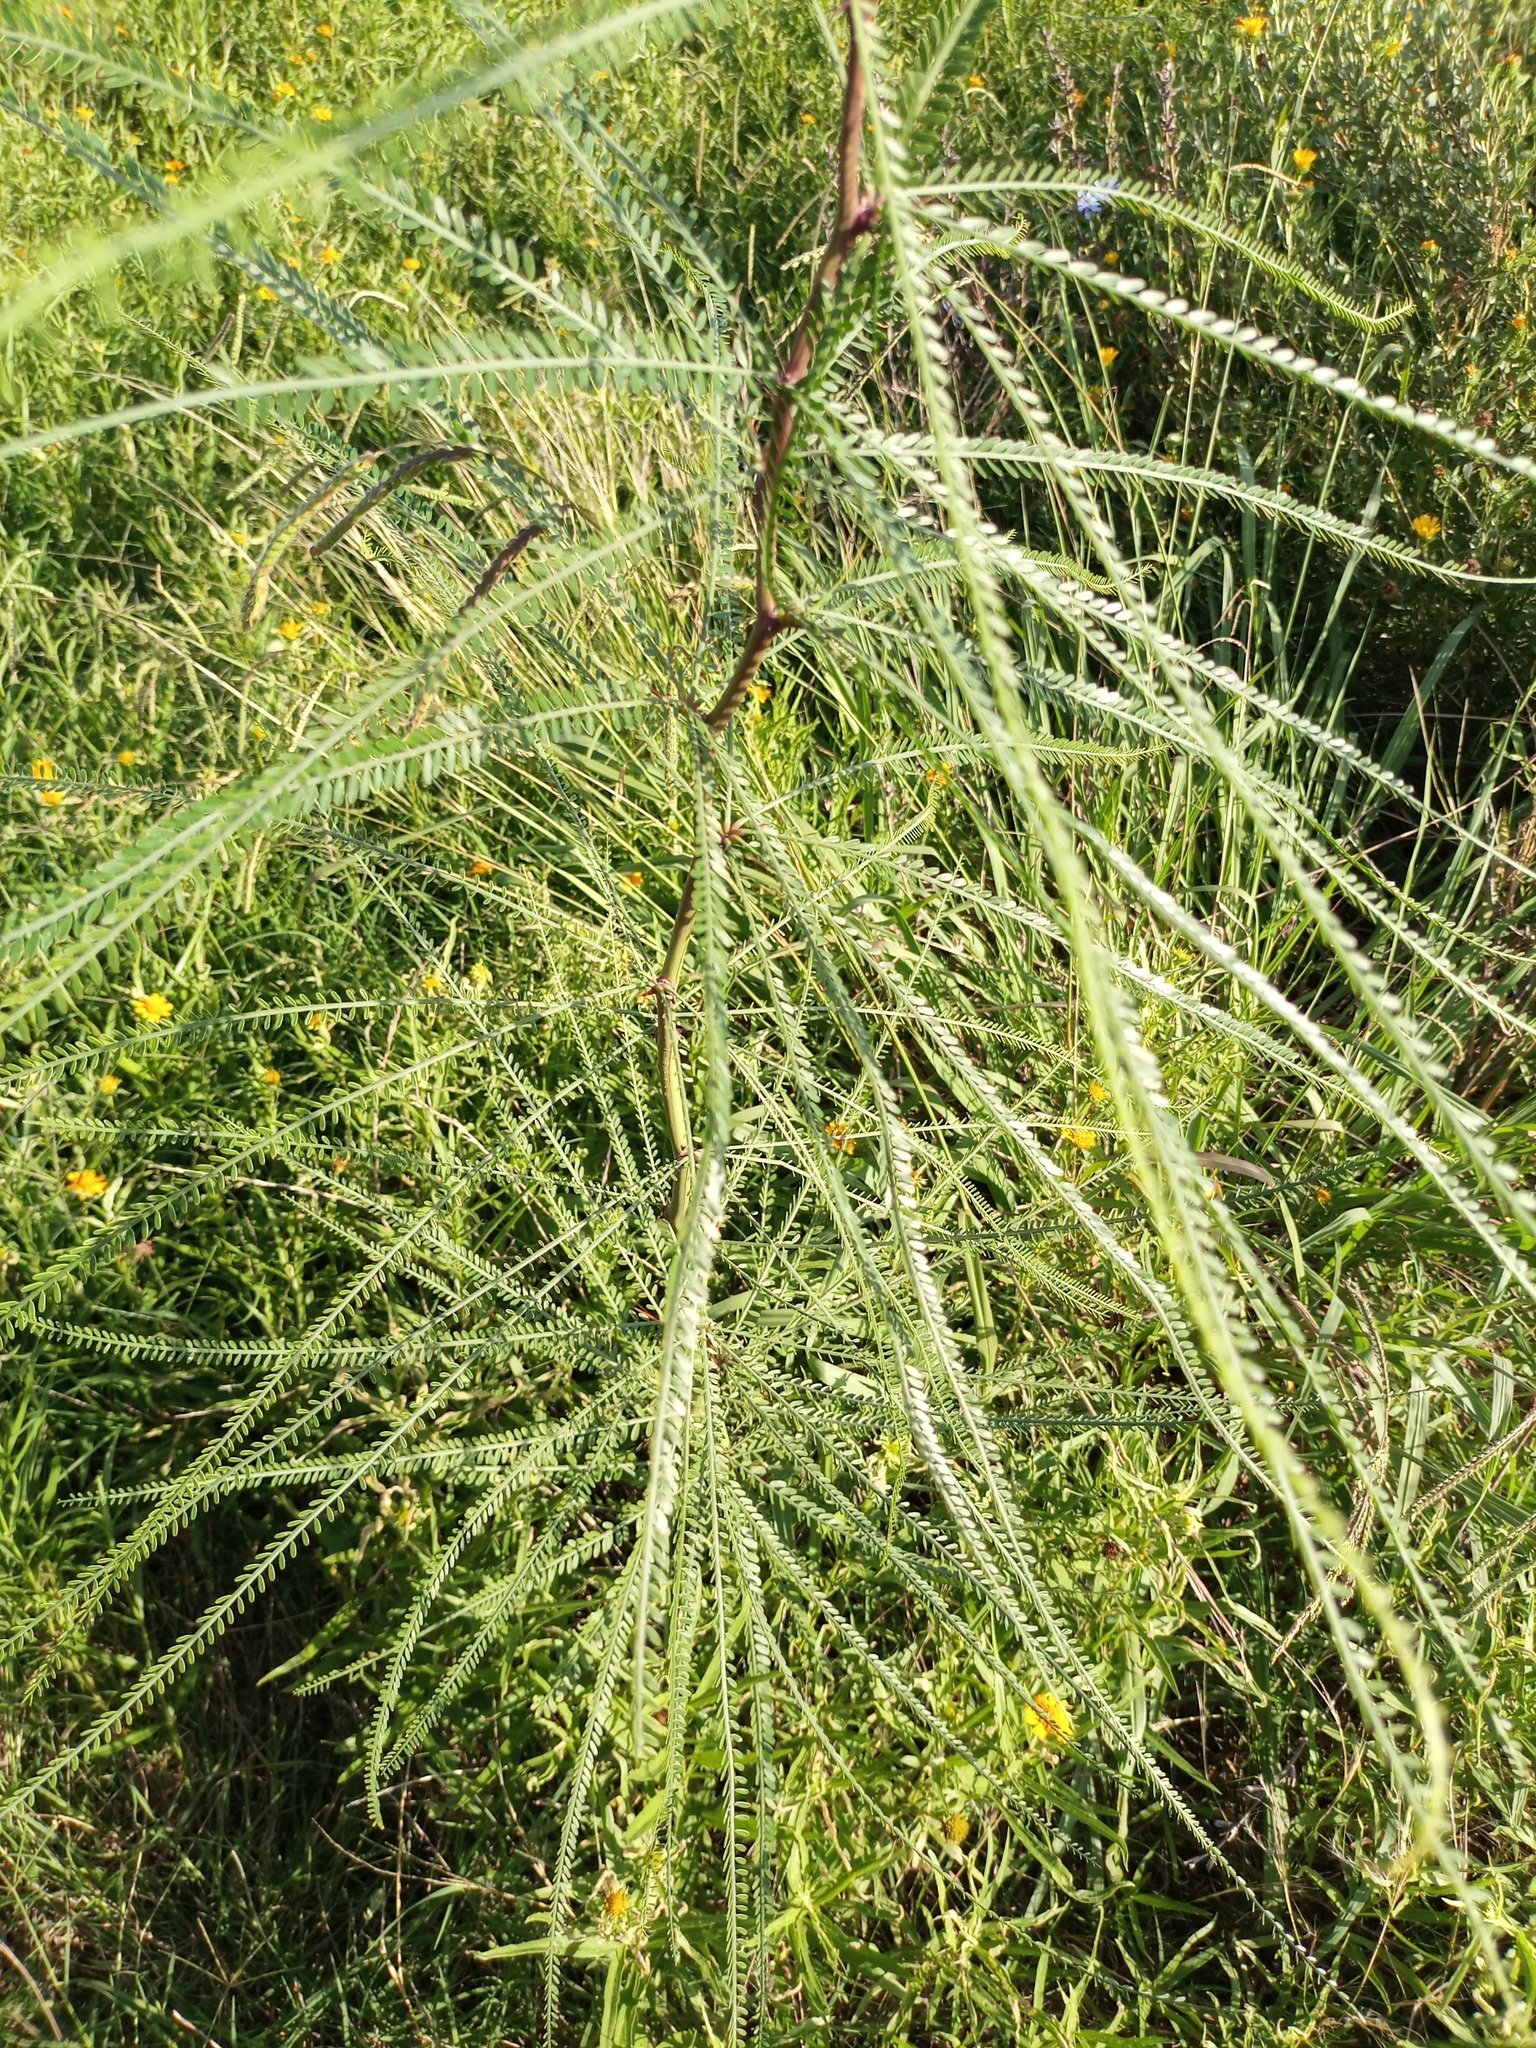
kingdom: Plantae
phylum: Tracheophyta
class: Magnoliopsida
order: Fabales
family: Fabaceae
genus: Parkinsonia
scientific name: Parkinsonia aculeata
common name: Jerusalem thorn
